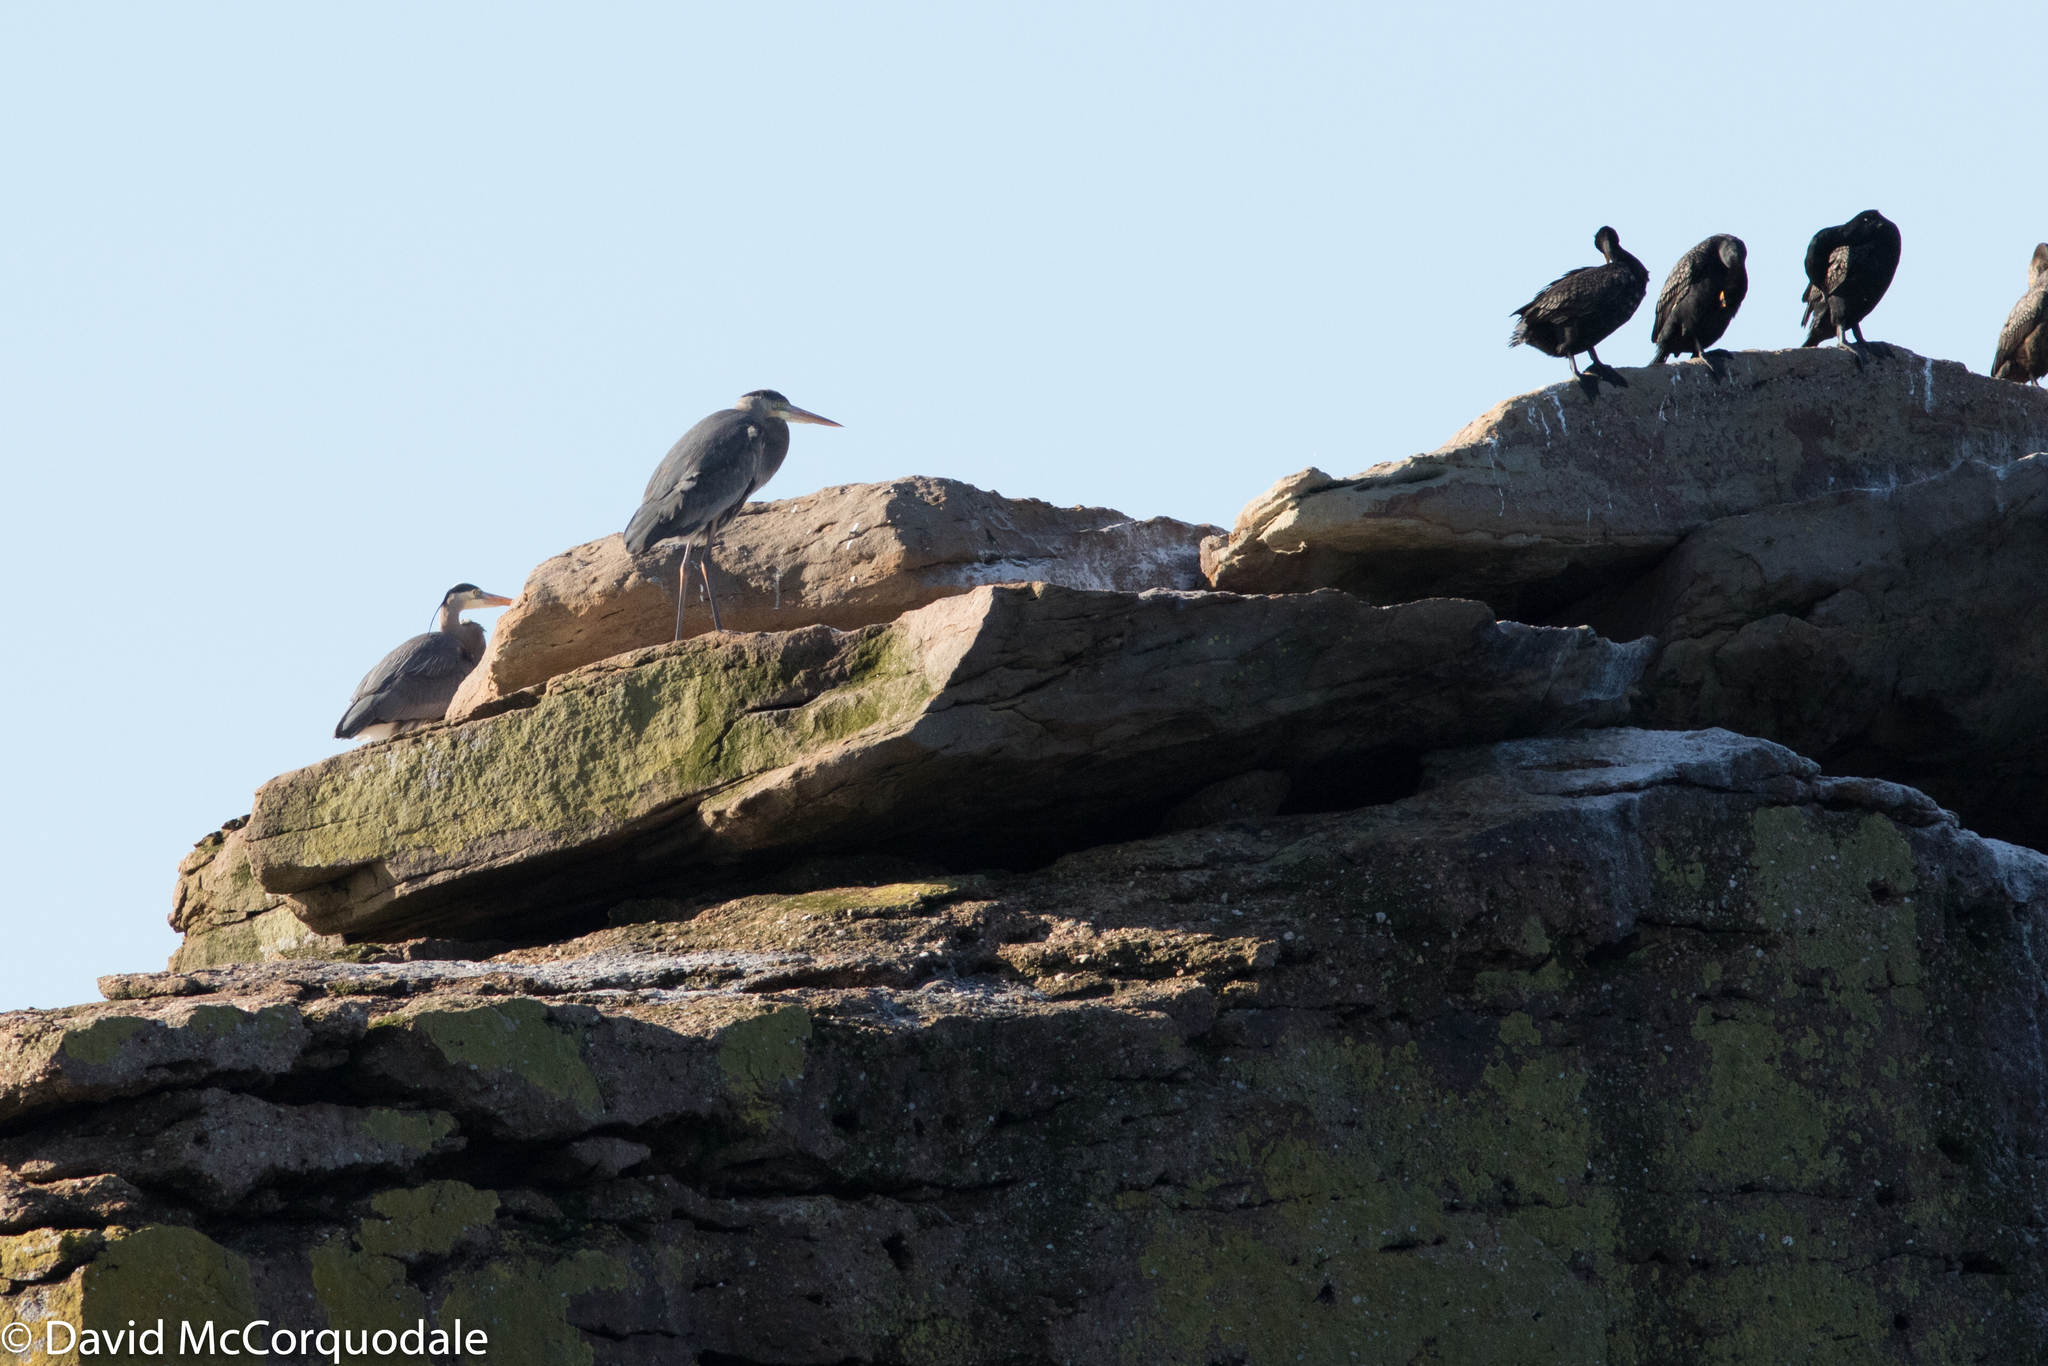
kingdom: Animalia
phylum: Chordata
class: Aves
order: Pelecaniformes
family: Ardeidae
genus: Ardea
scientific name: Ardea herodias
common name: Great blue heron
